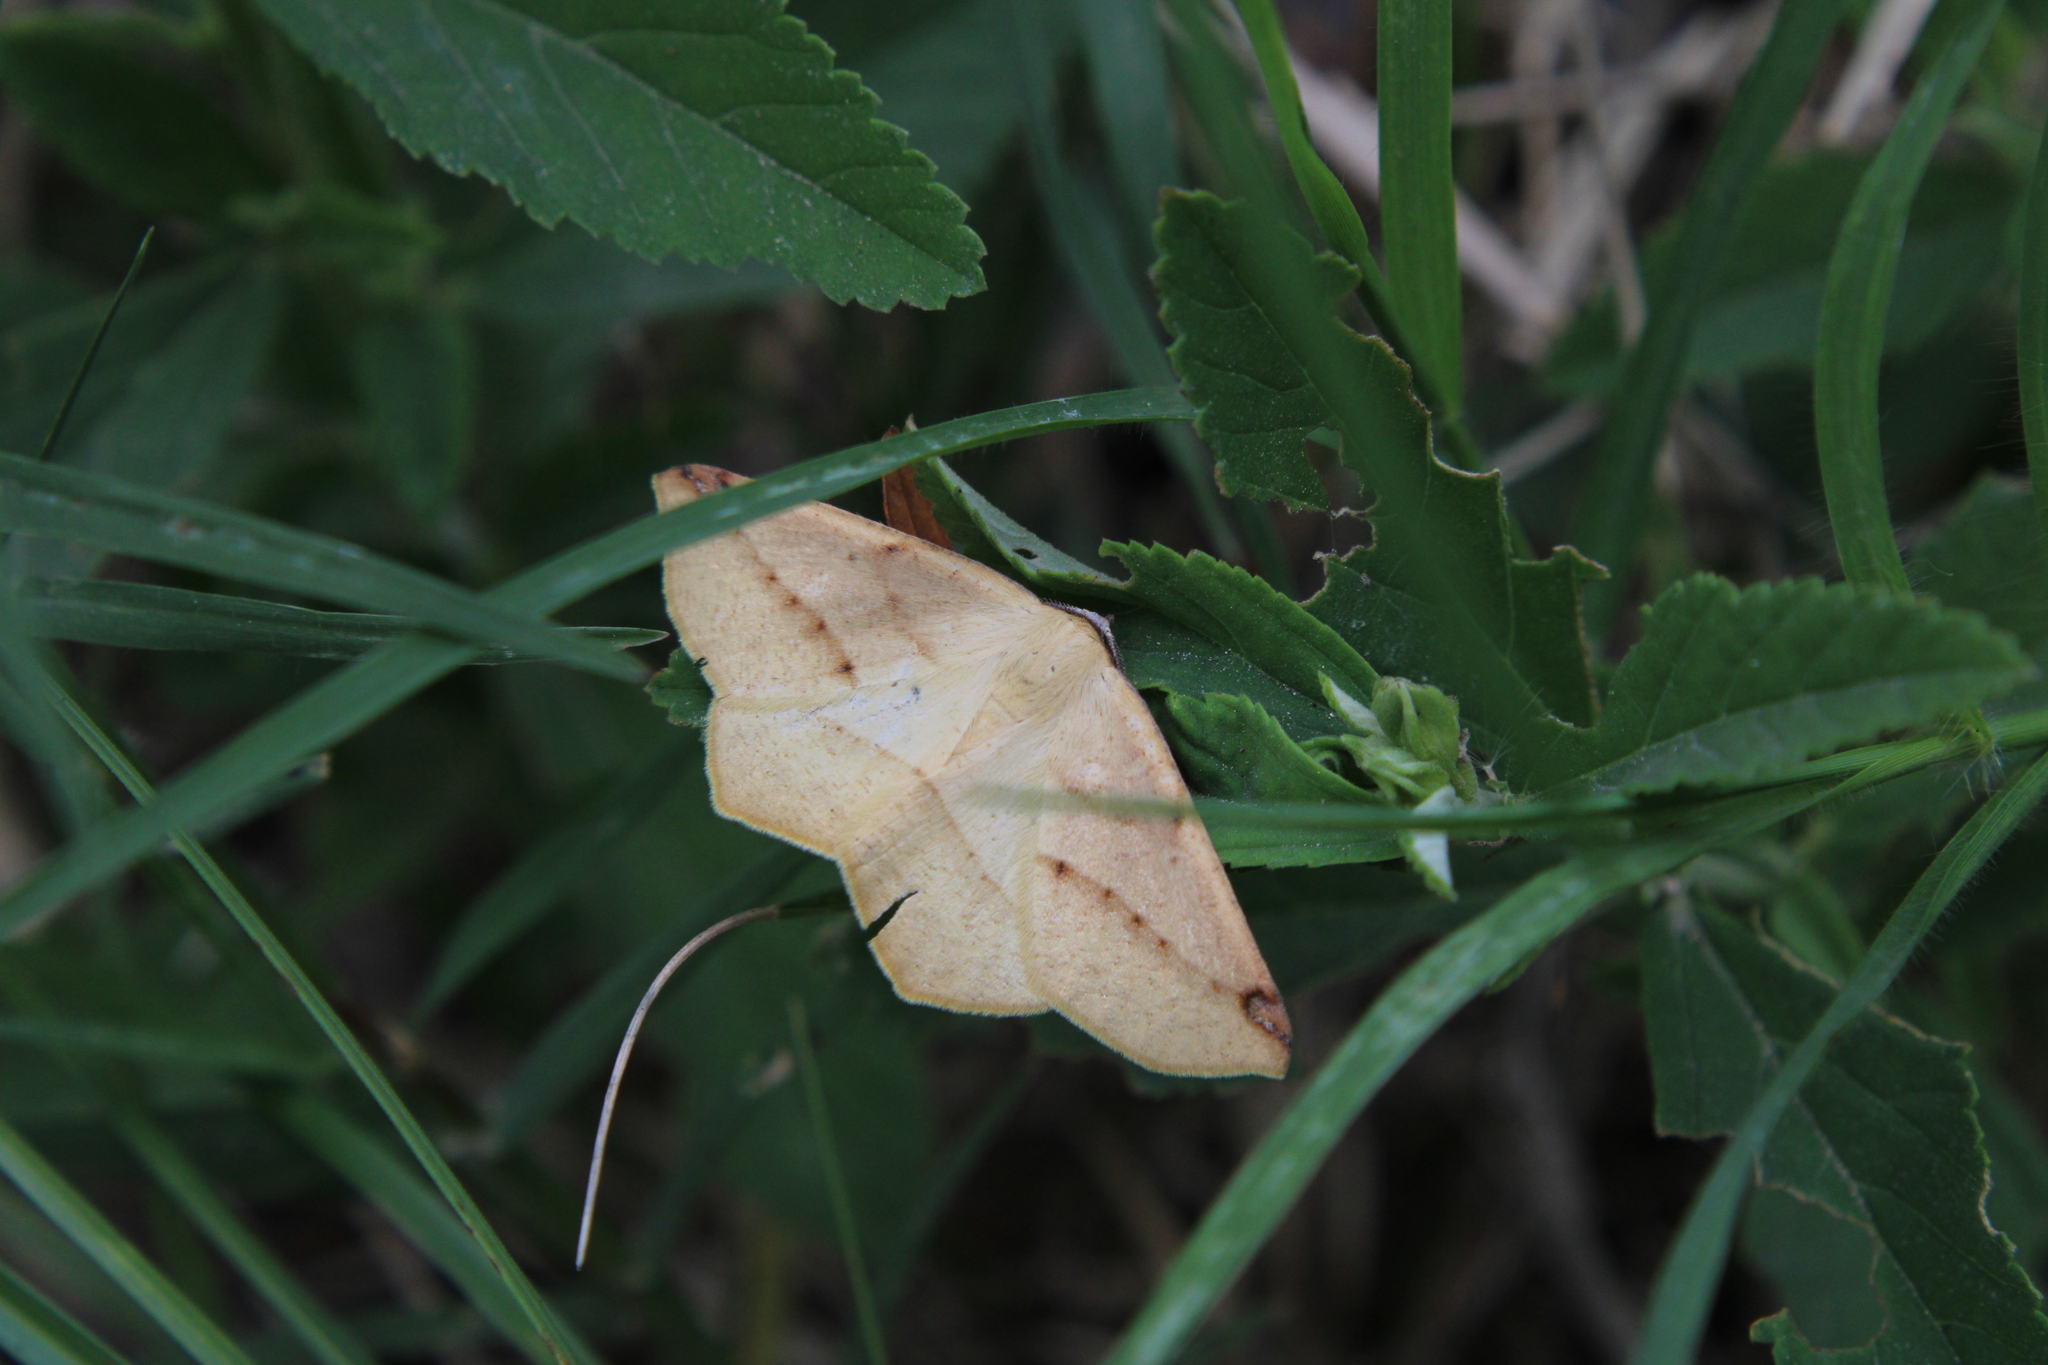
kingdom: Animalia
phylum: Arthropoda
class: Insecta
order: Lepidoptera
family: Geometridae
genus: Microsema
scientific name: Microsema gladiaria
